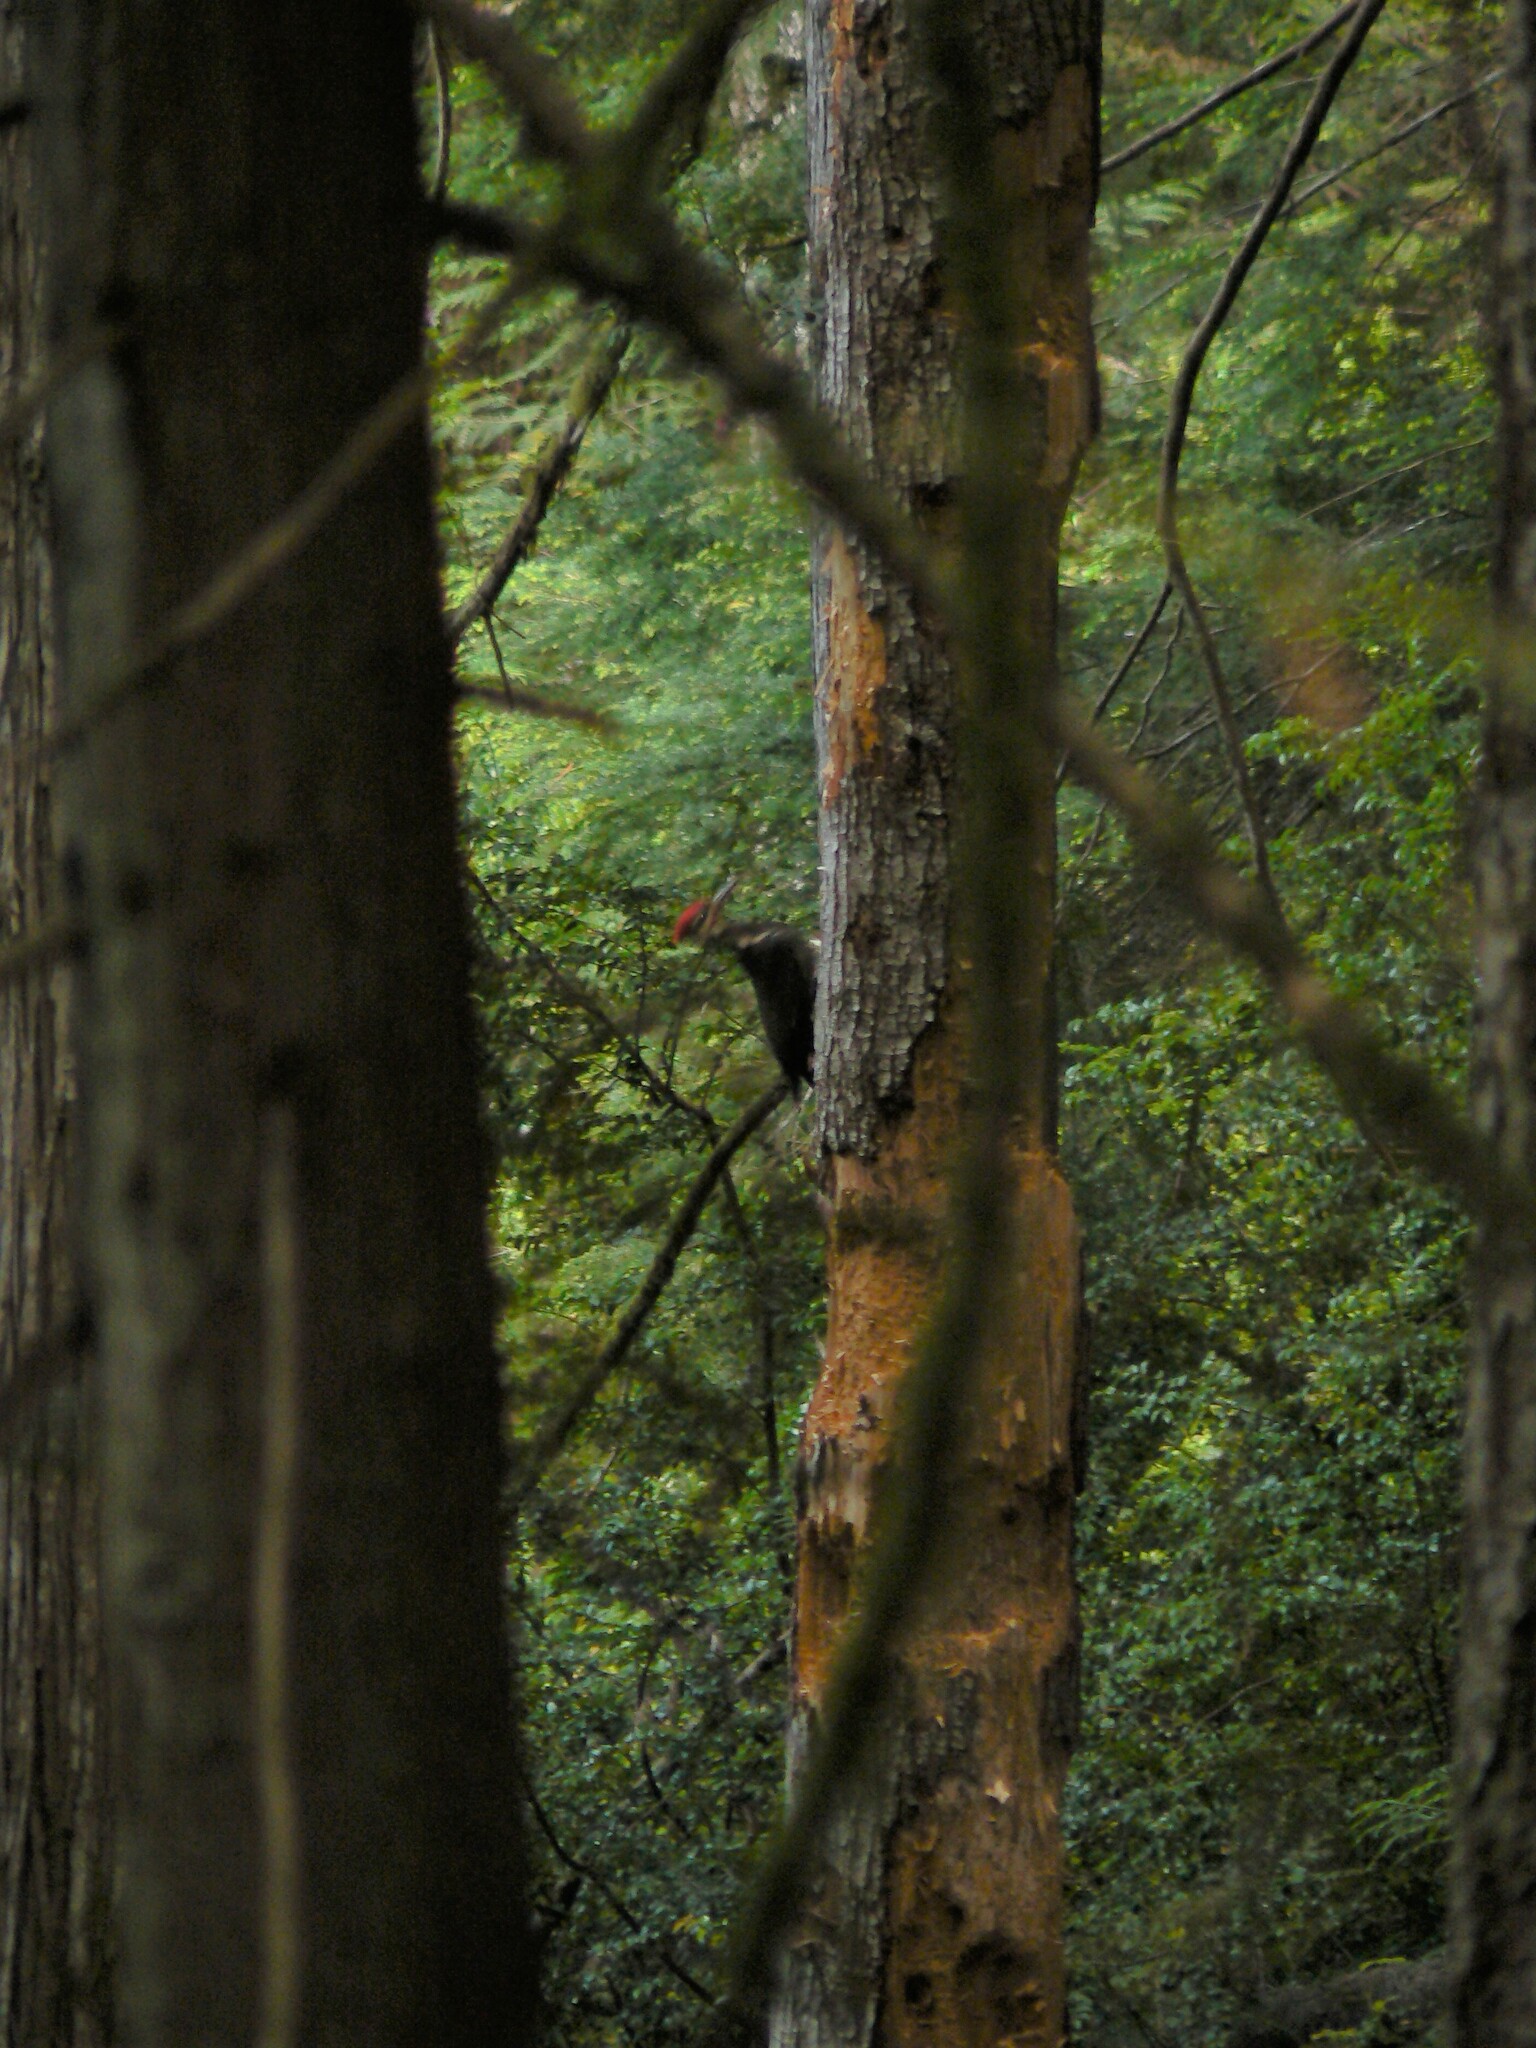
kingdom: Animalia
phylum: Chordata
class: Aves
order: Piciformes
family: Picidae
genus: Dryocopus
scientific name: Dryocopus pileatus
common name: Pileated woodpecker
